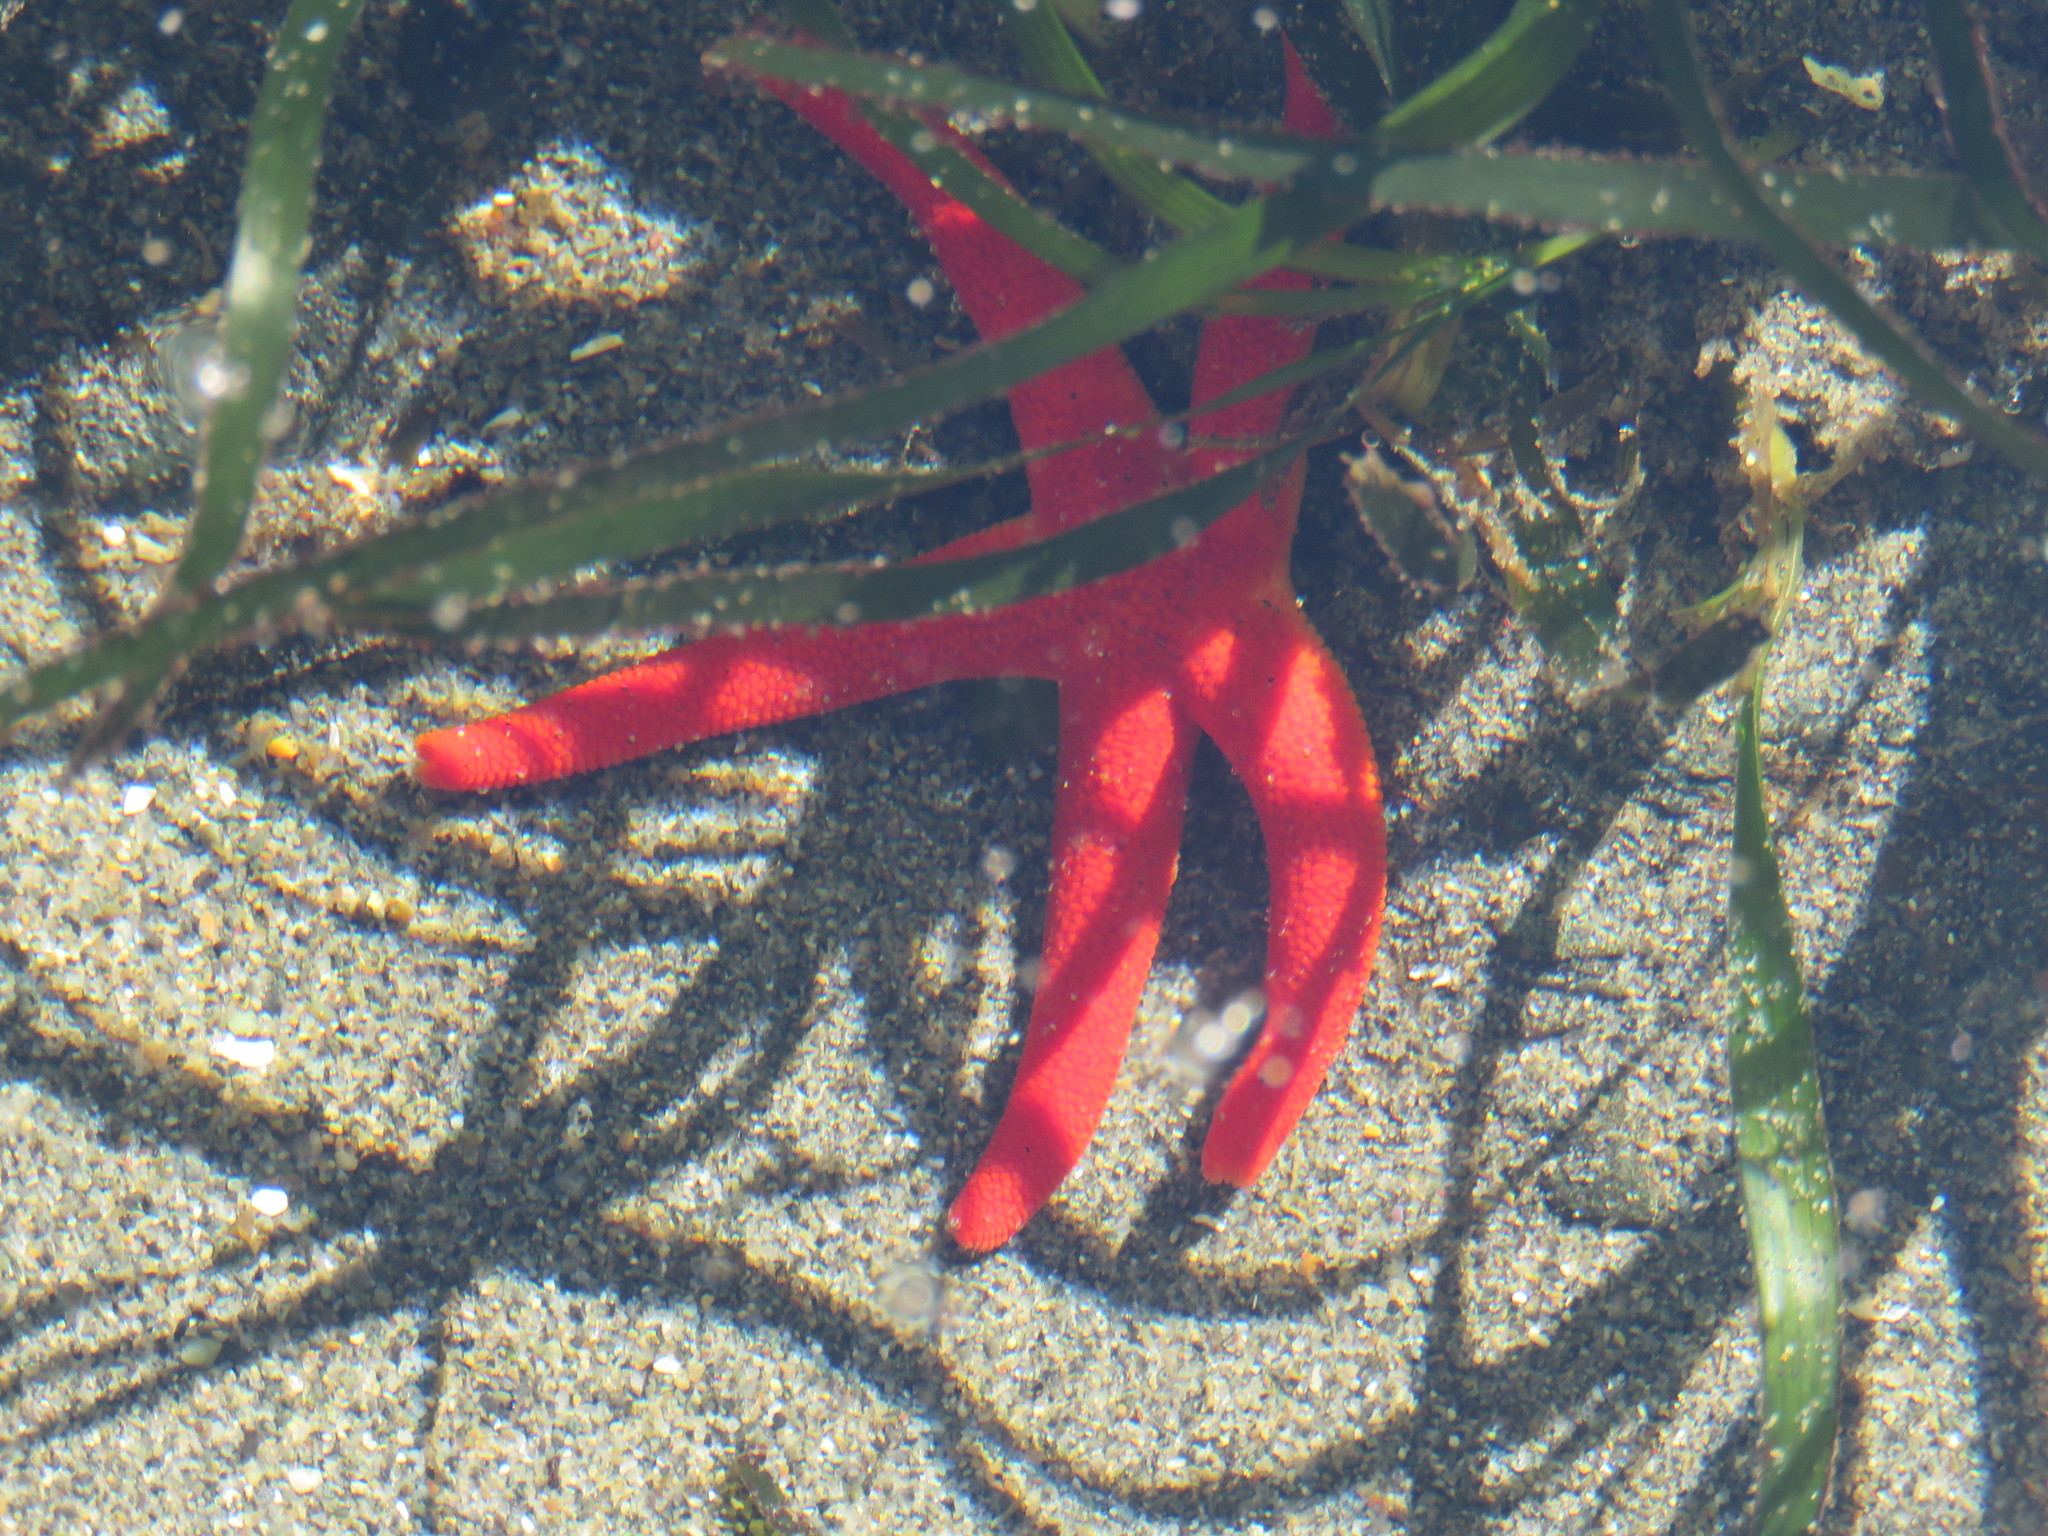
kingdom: Animalia
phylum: Echinodermata
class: Asteroidea
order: Spinulosida
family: Echinasteridae
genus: Henricia
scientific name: Henricia leviuscula
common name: Pacific blood star
